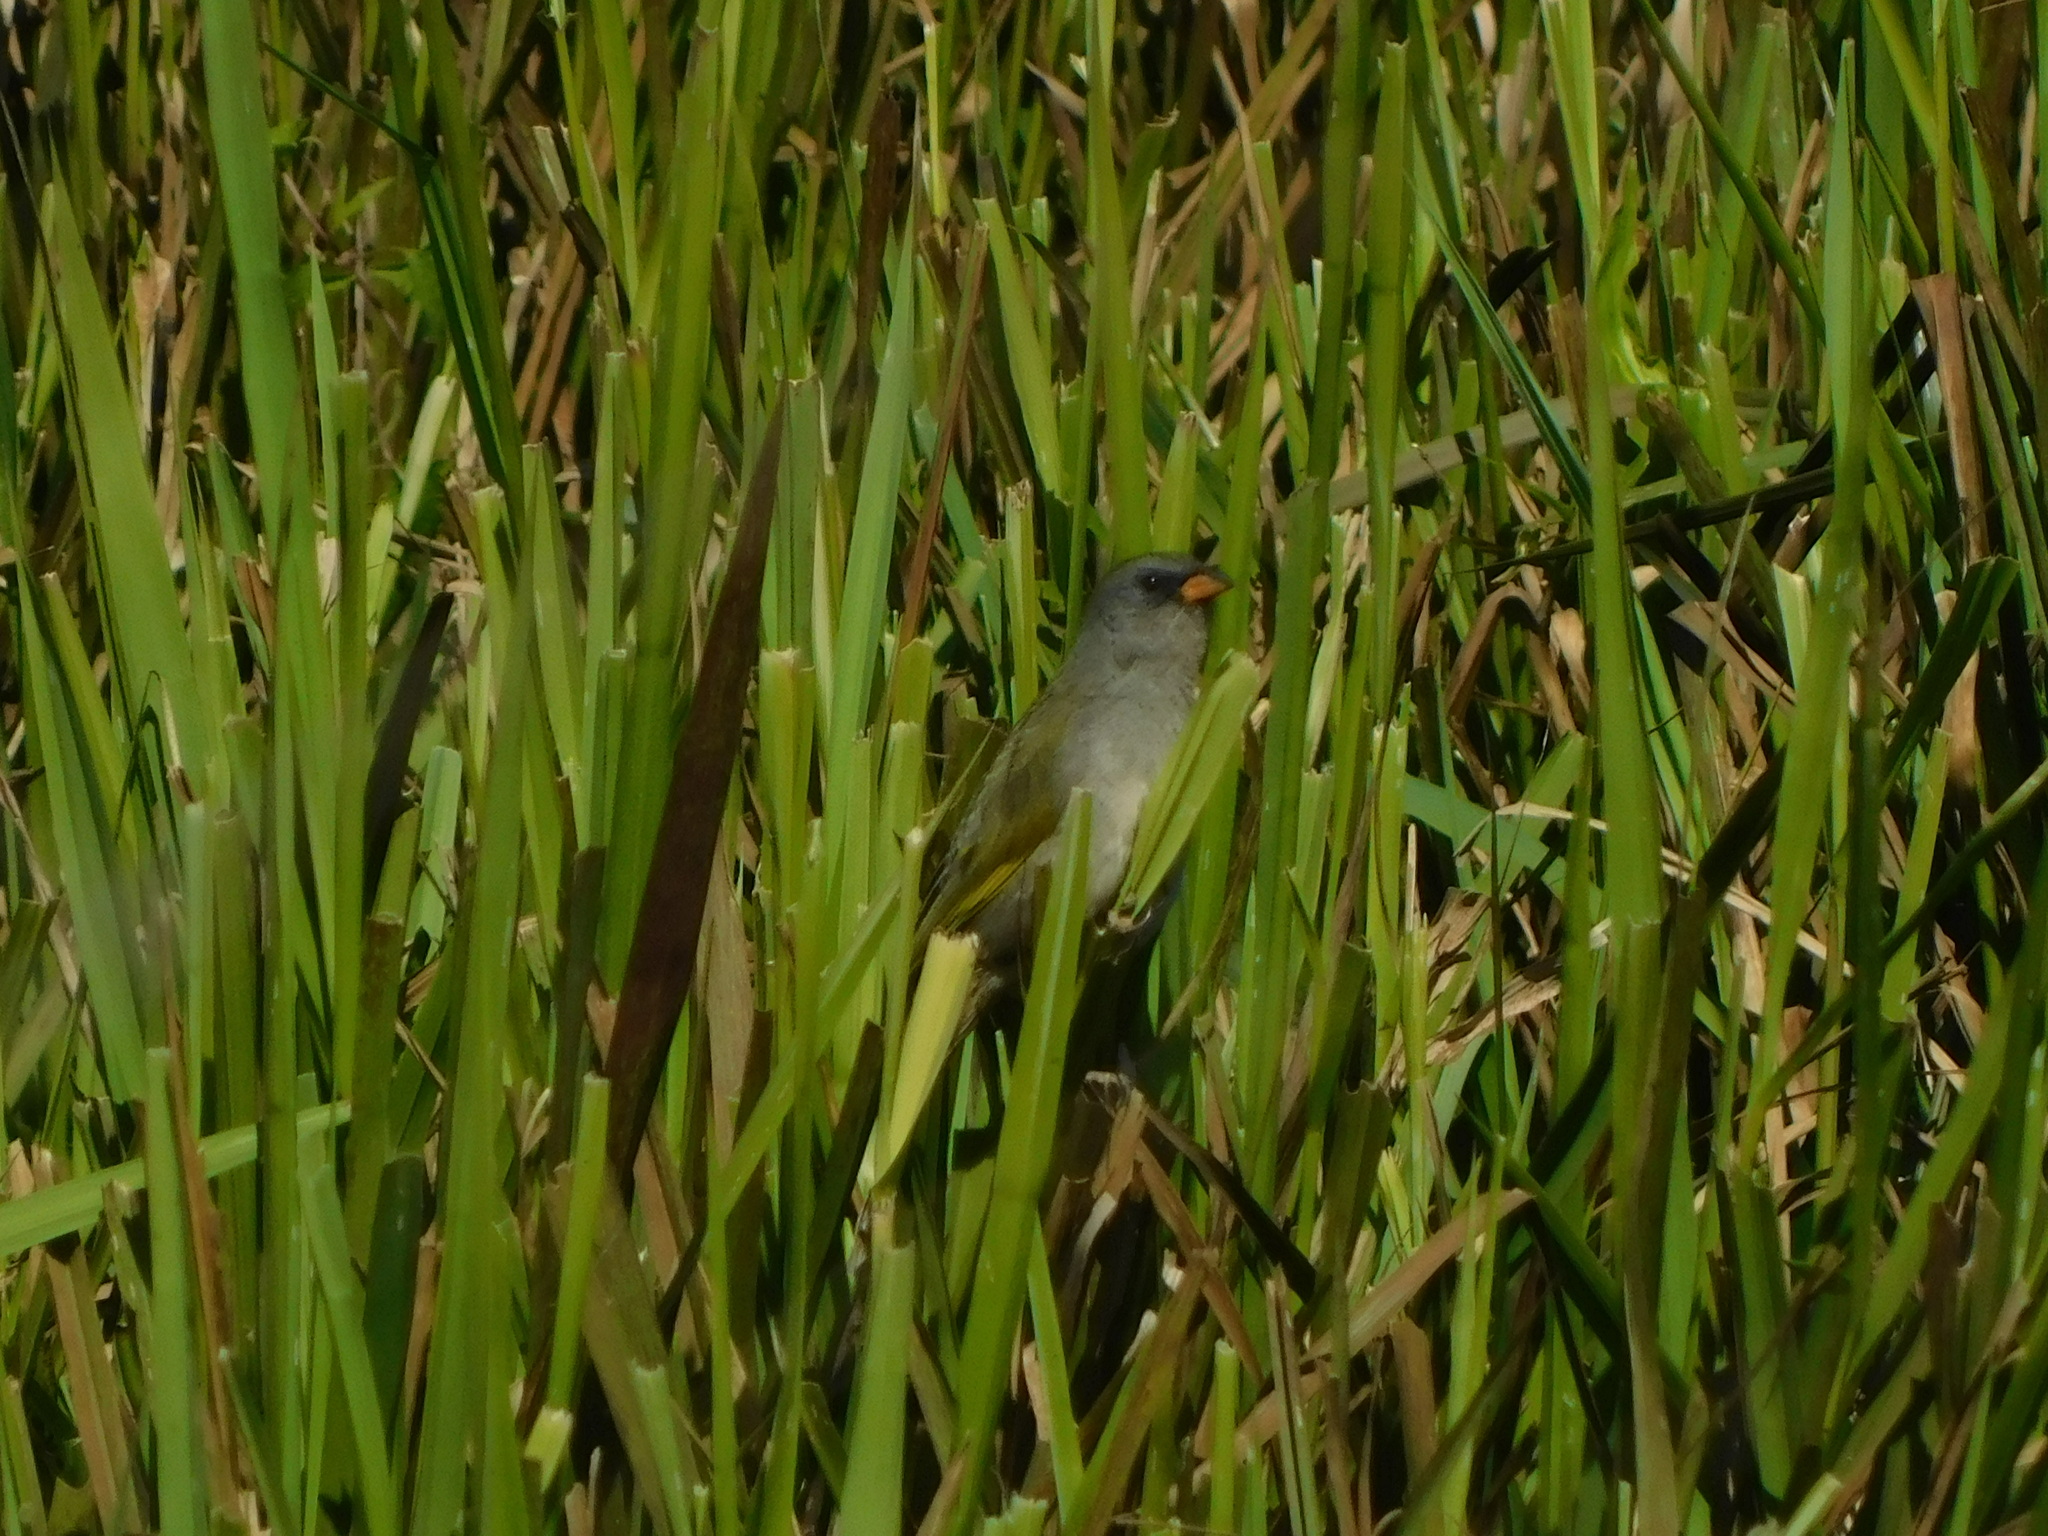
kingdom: Animalia
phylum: Chordata
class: Aves
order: Passeriformes
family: Thraupidae
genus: Embernagra
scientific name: Embernagra platensis
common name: Pampa finch
